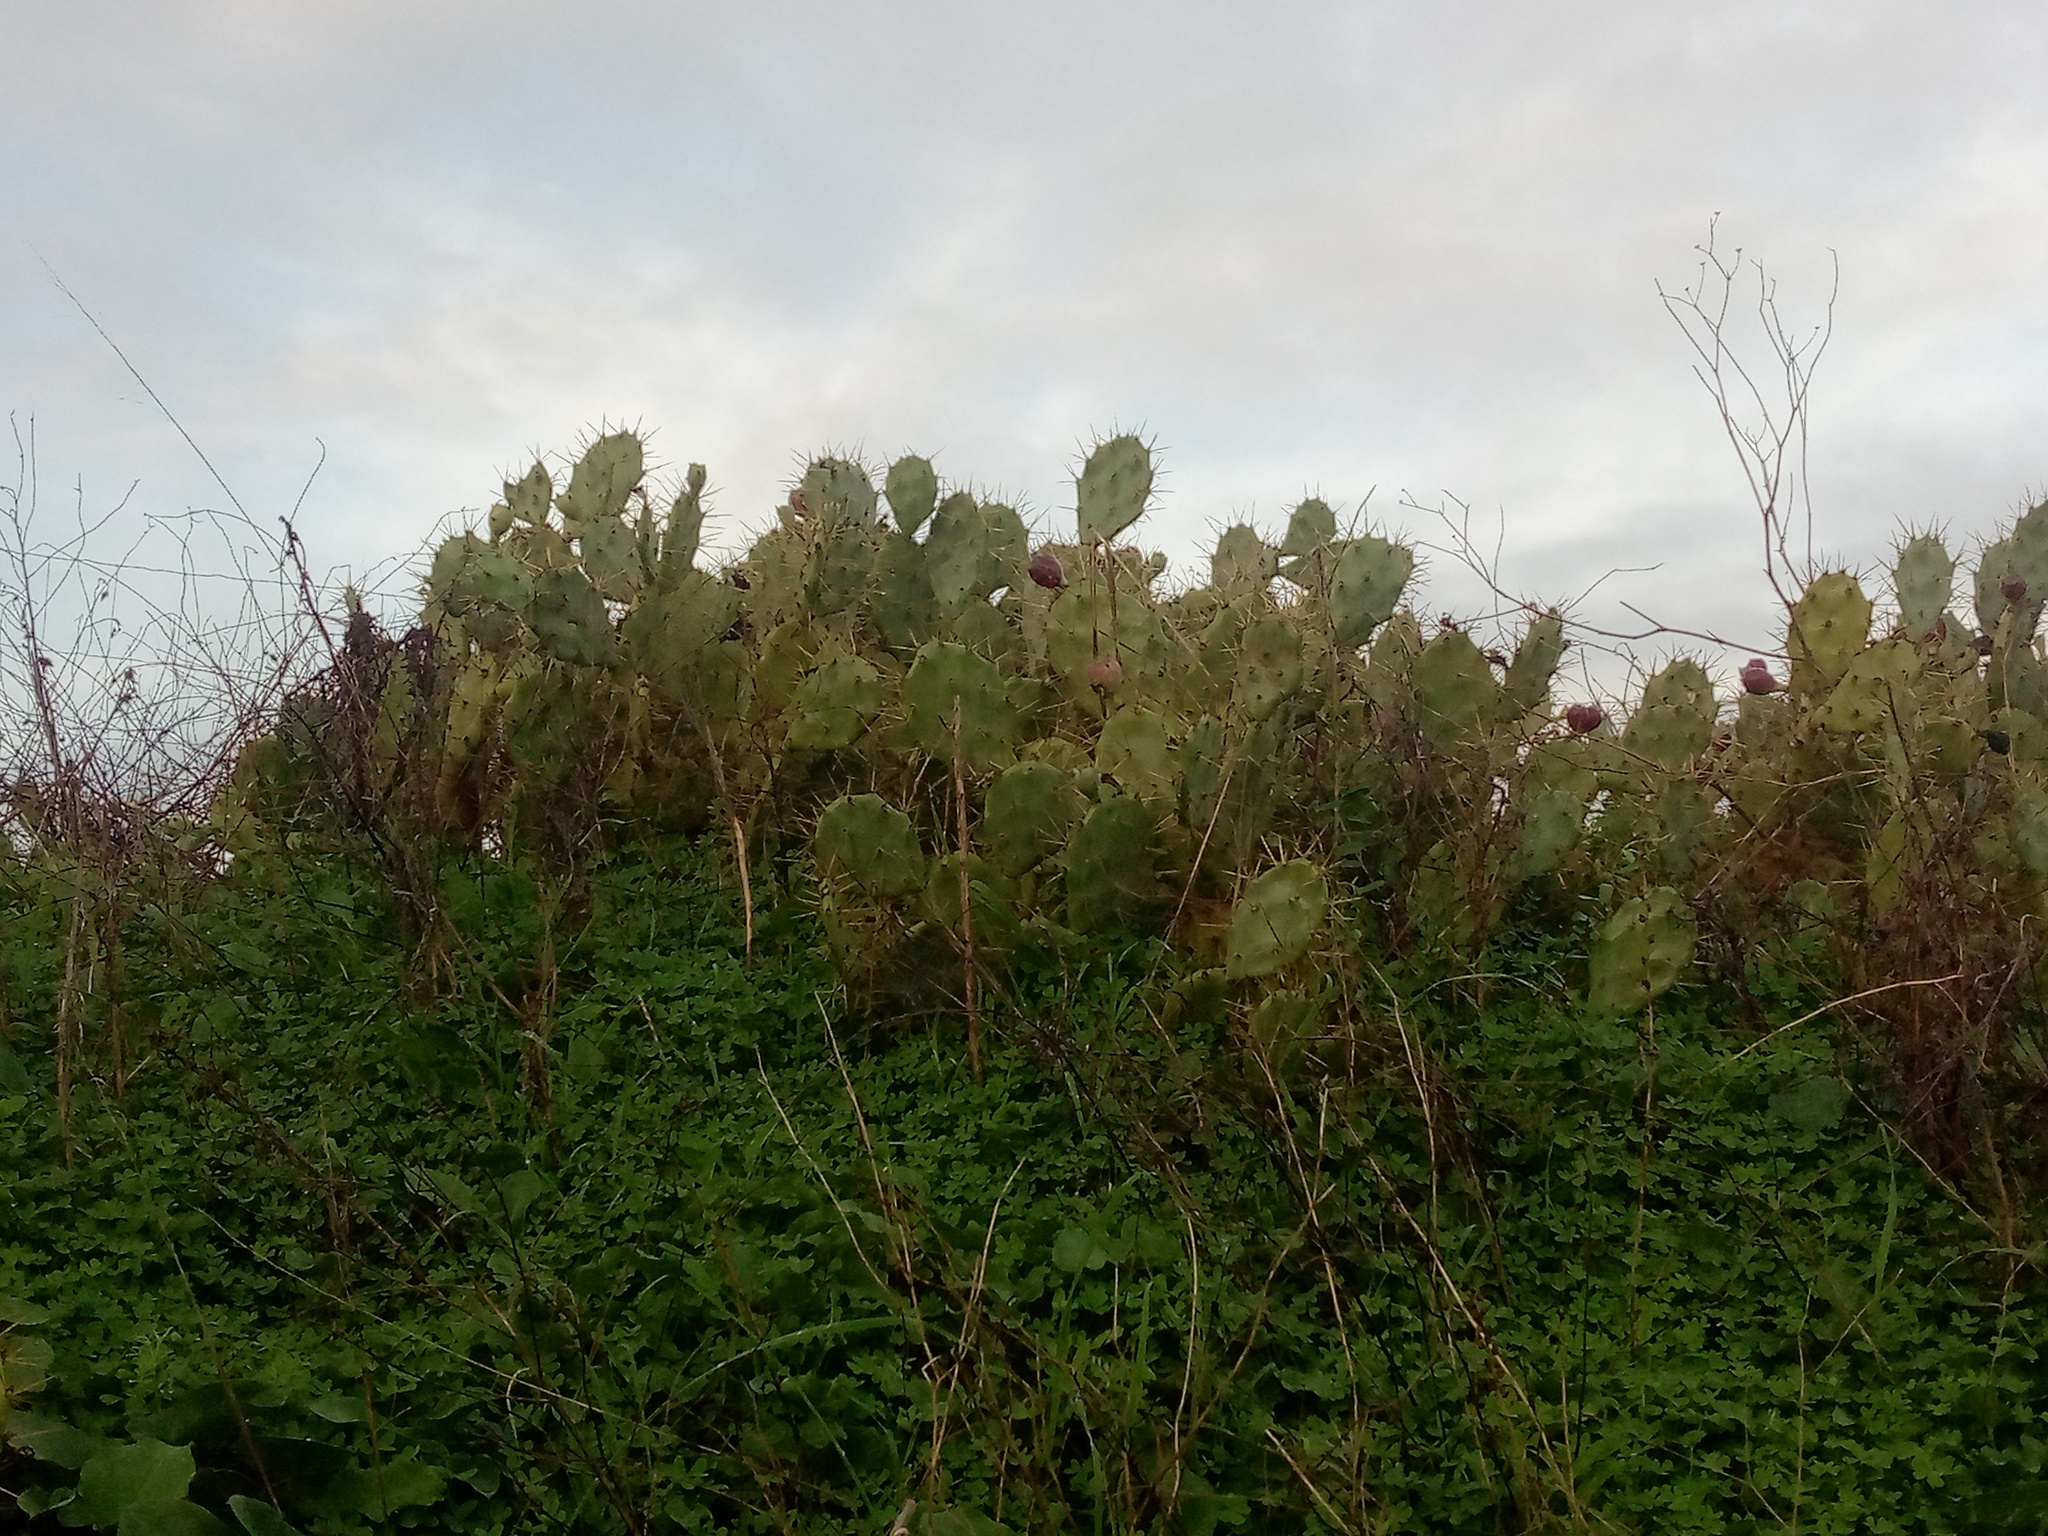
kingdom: Plantae
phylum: Tracheophyta
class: Magnoliopsida
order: Caryophyllales
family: Cactaceae
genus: Opuntia
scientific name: Opuntia stricta
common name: Erect pricklypear
